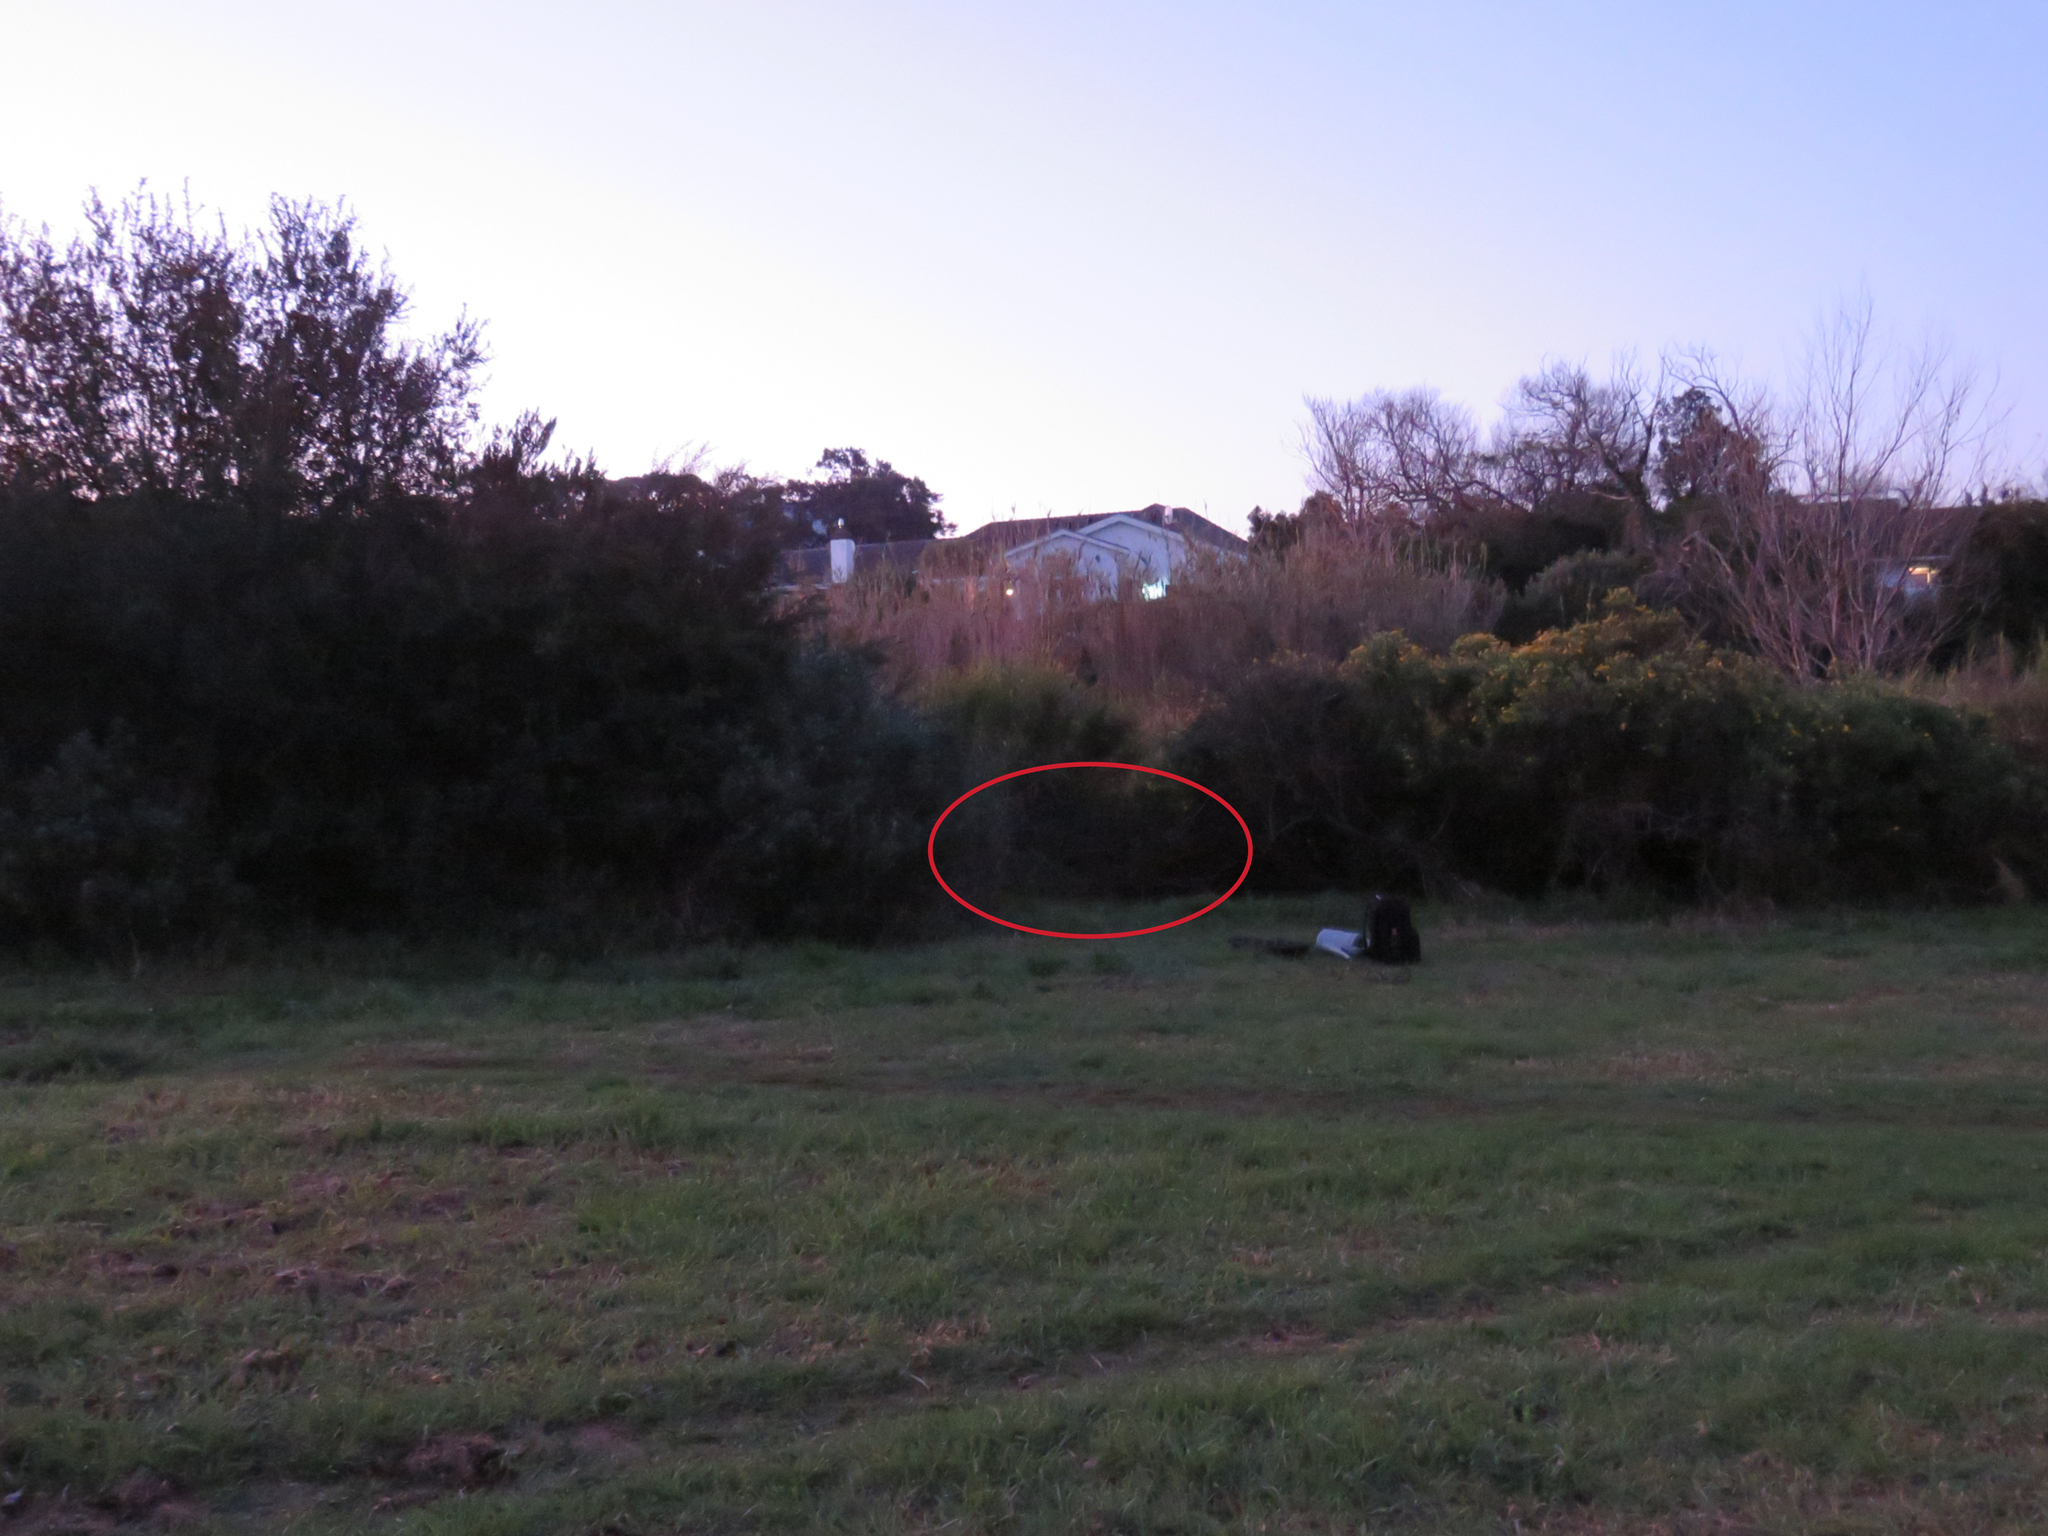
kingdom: Plantae
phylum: Tracheophyta
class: Magnoliopsida
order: Fabales
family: Fabaceae
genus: Psoralea
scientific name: Psoralea fascicularis
